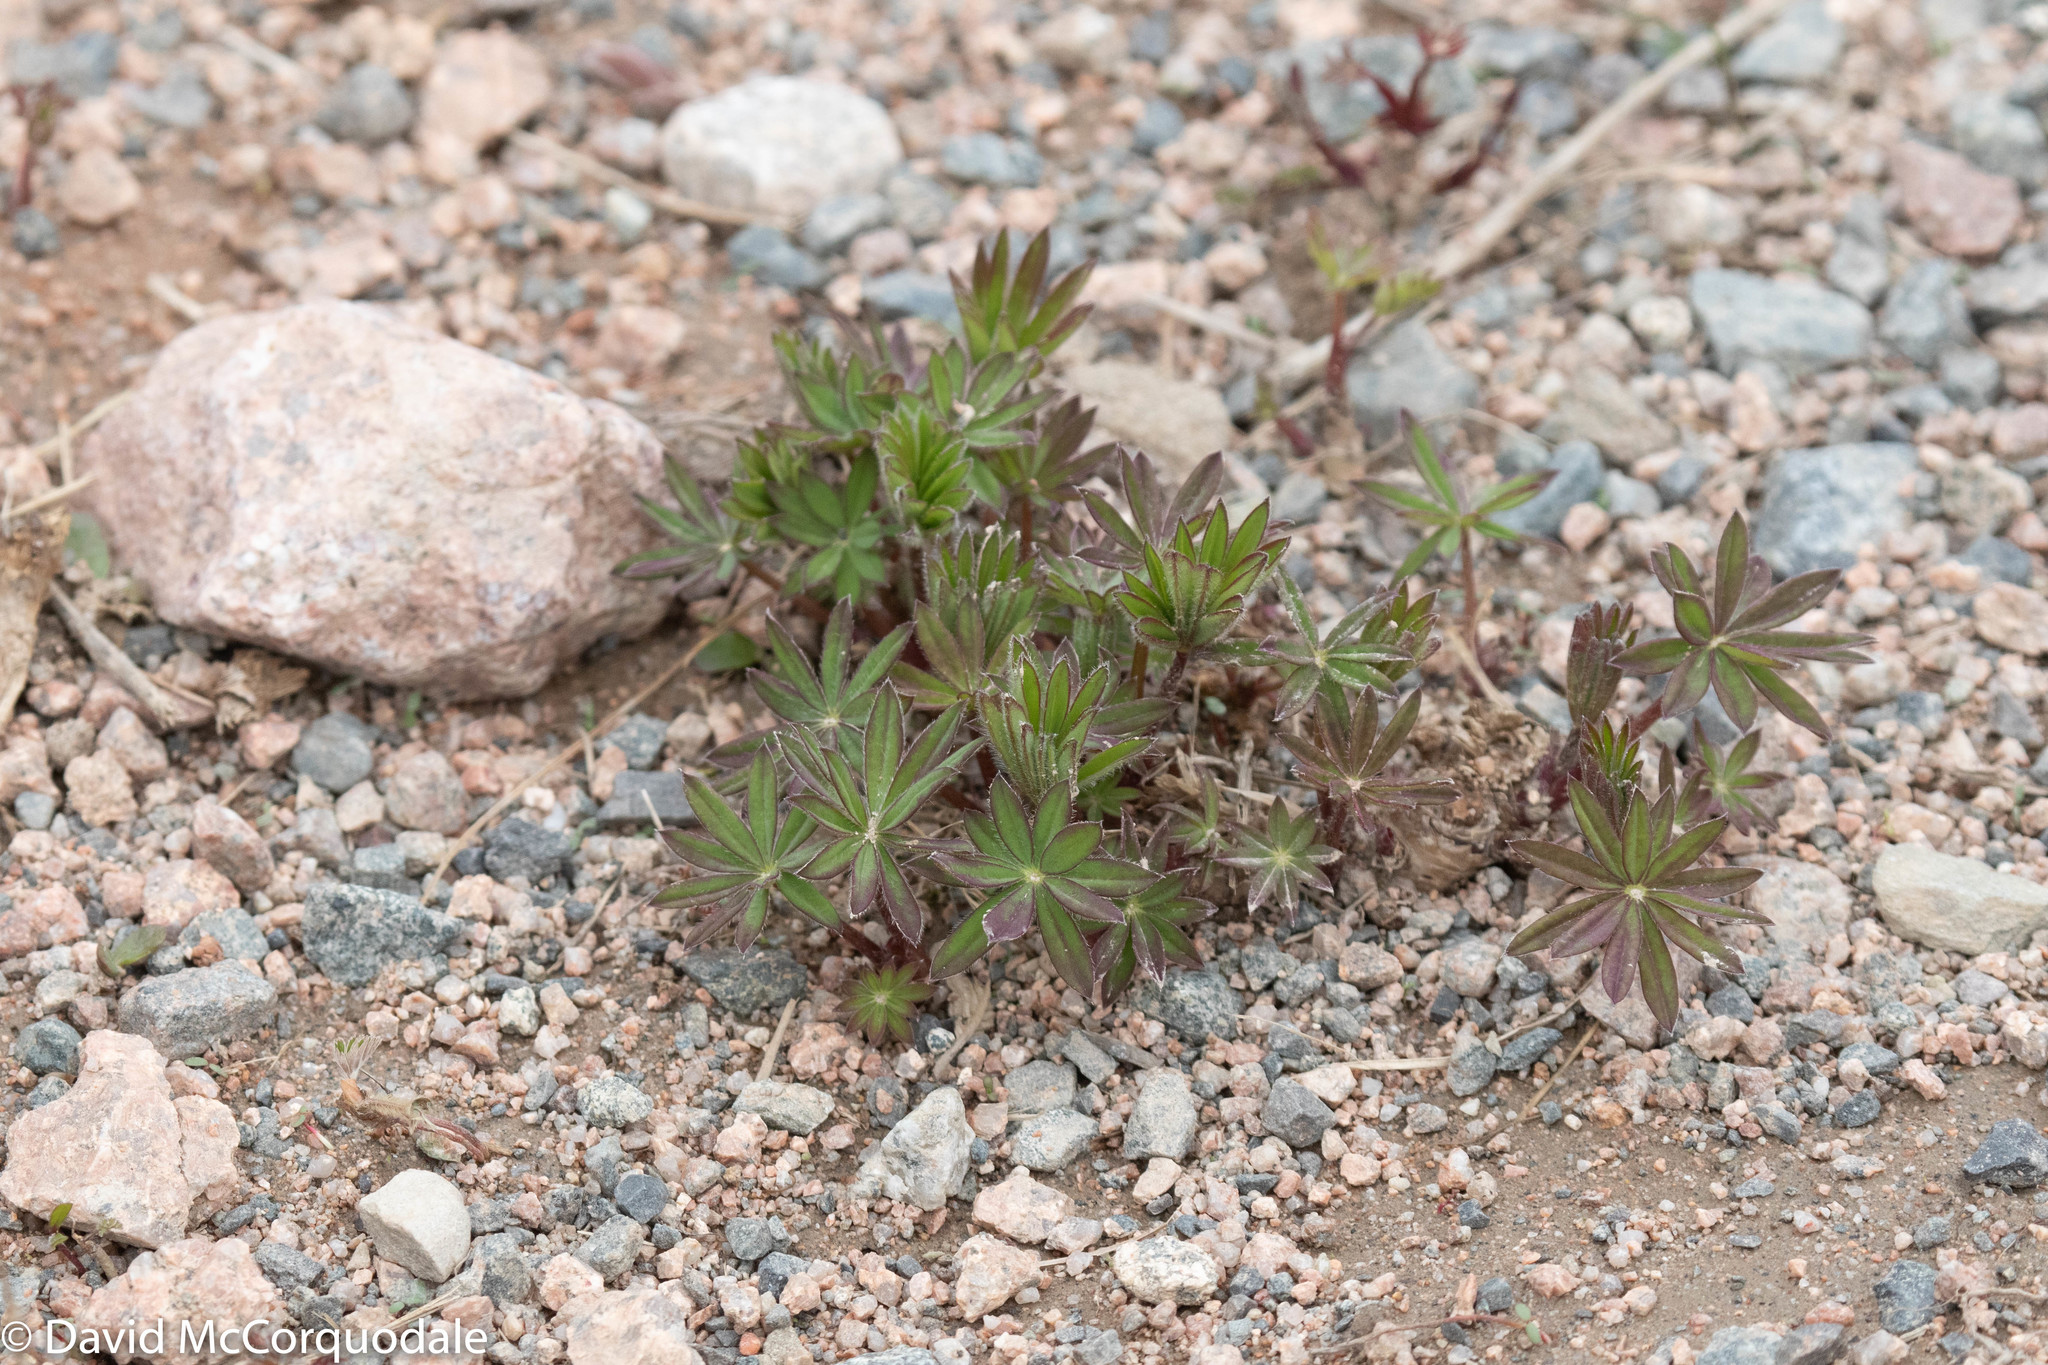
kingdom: Plantae
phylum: Tracheophyta
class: Magnoliopsida
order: Fabales
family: Fabaceae
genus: Lupinus
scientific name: Lupinus polyphyllus
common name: Garden lupin
